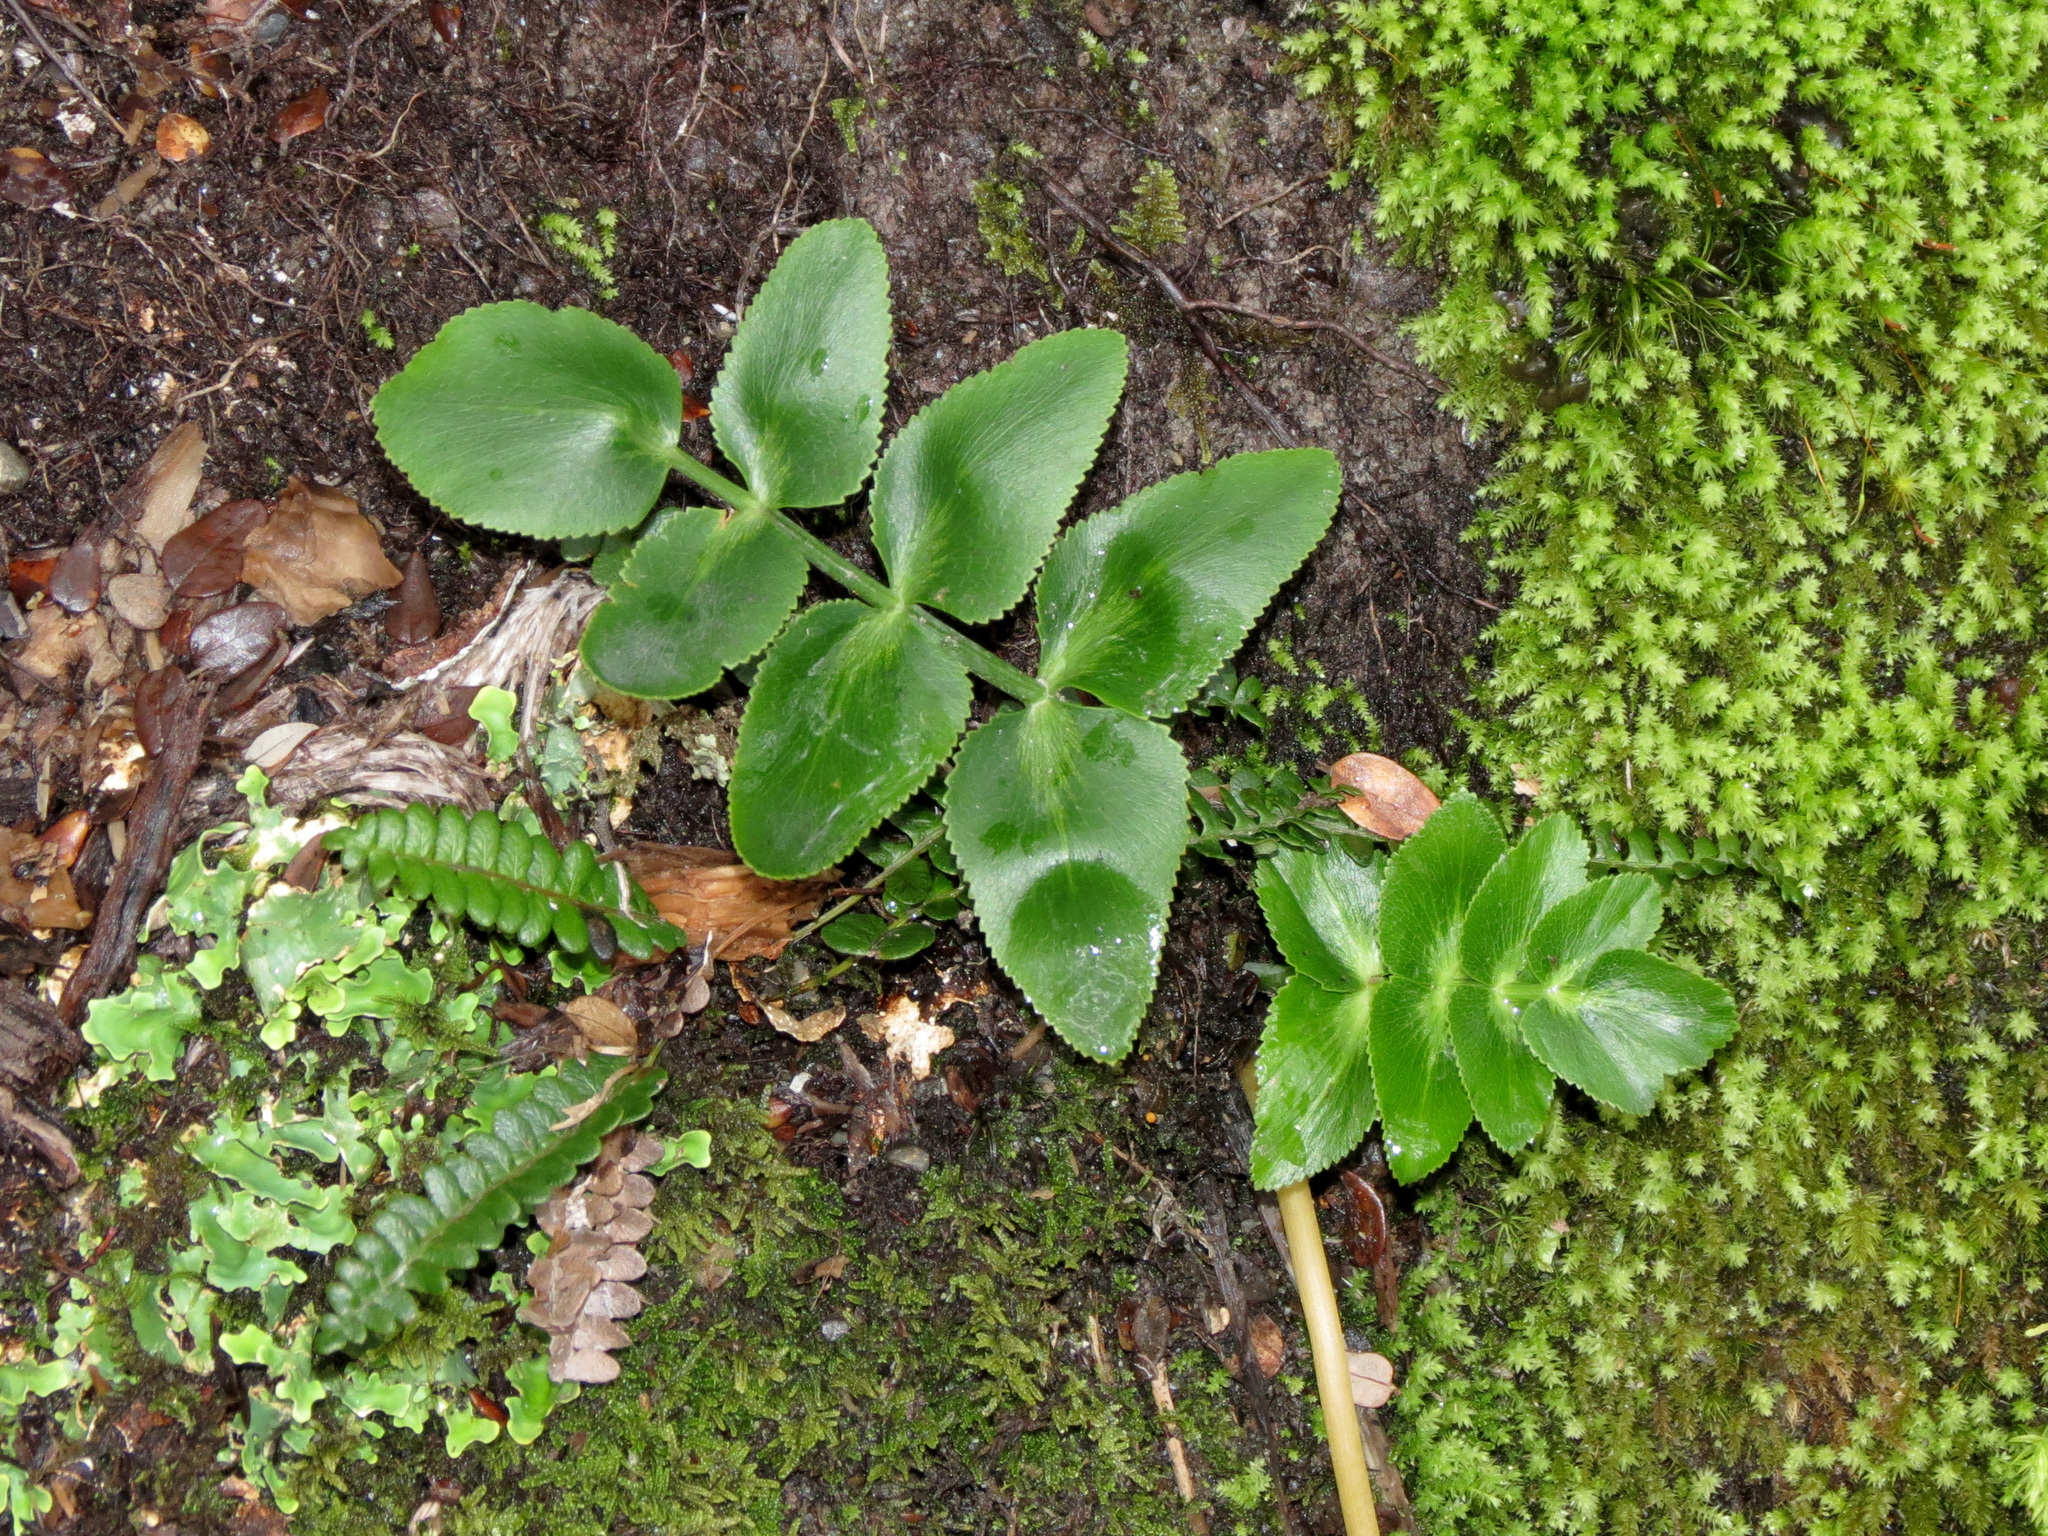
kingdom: Plantae
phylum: Tracheophyta
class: Magnoliopsida
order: Apiales
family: Apiaceae
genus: Gingidia
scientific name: Gingidia montana
